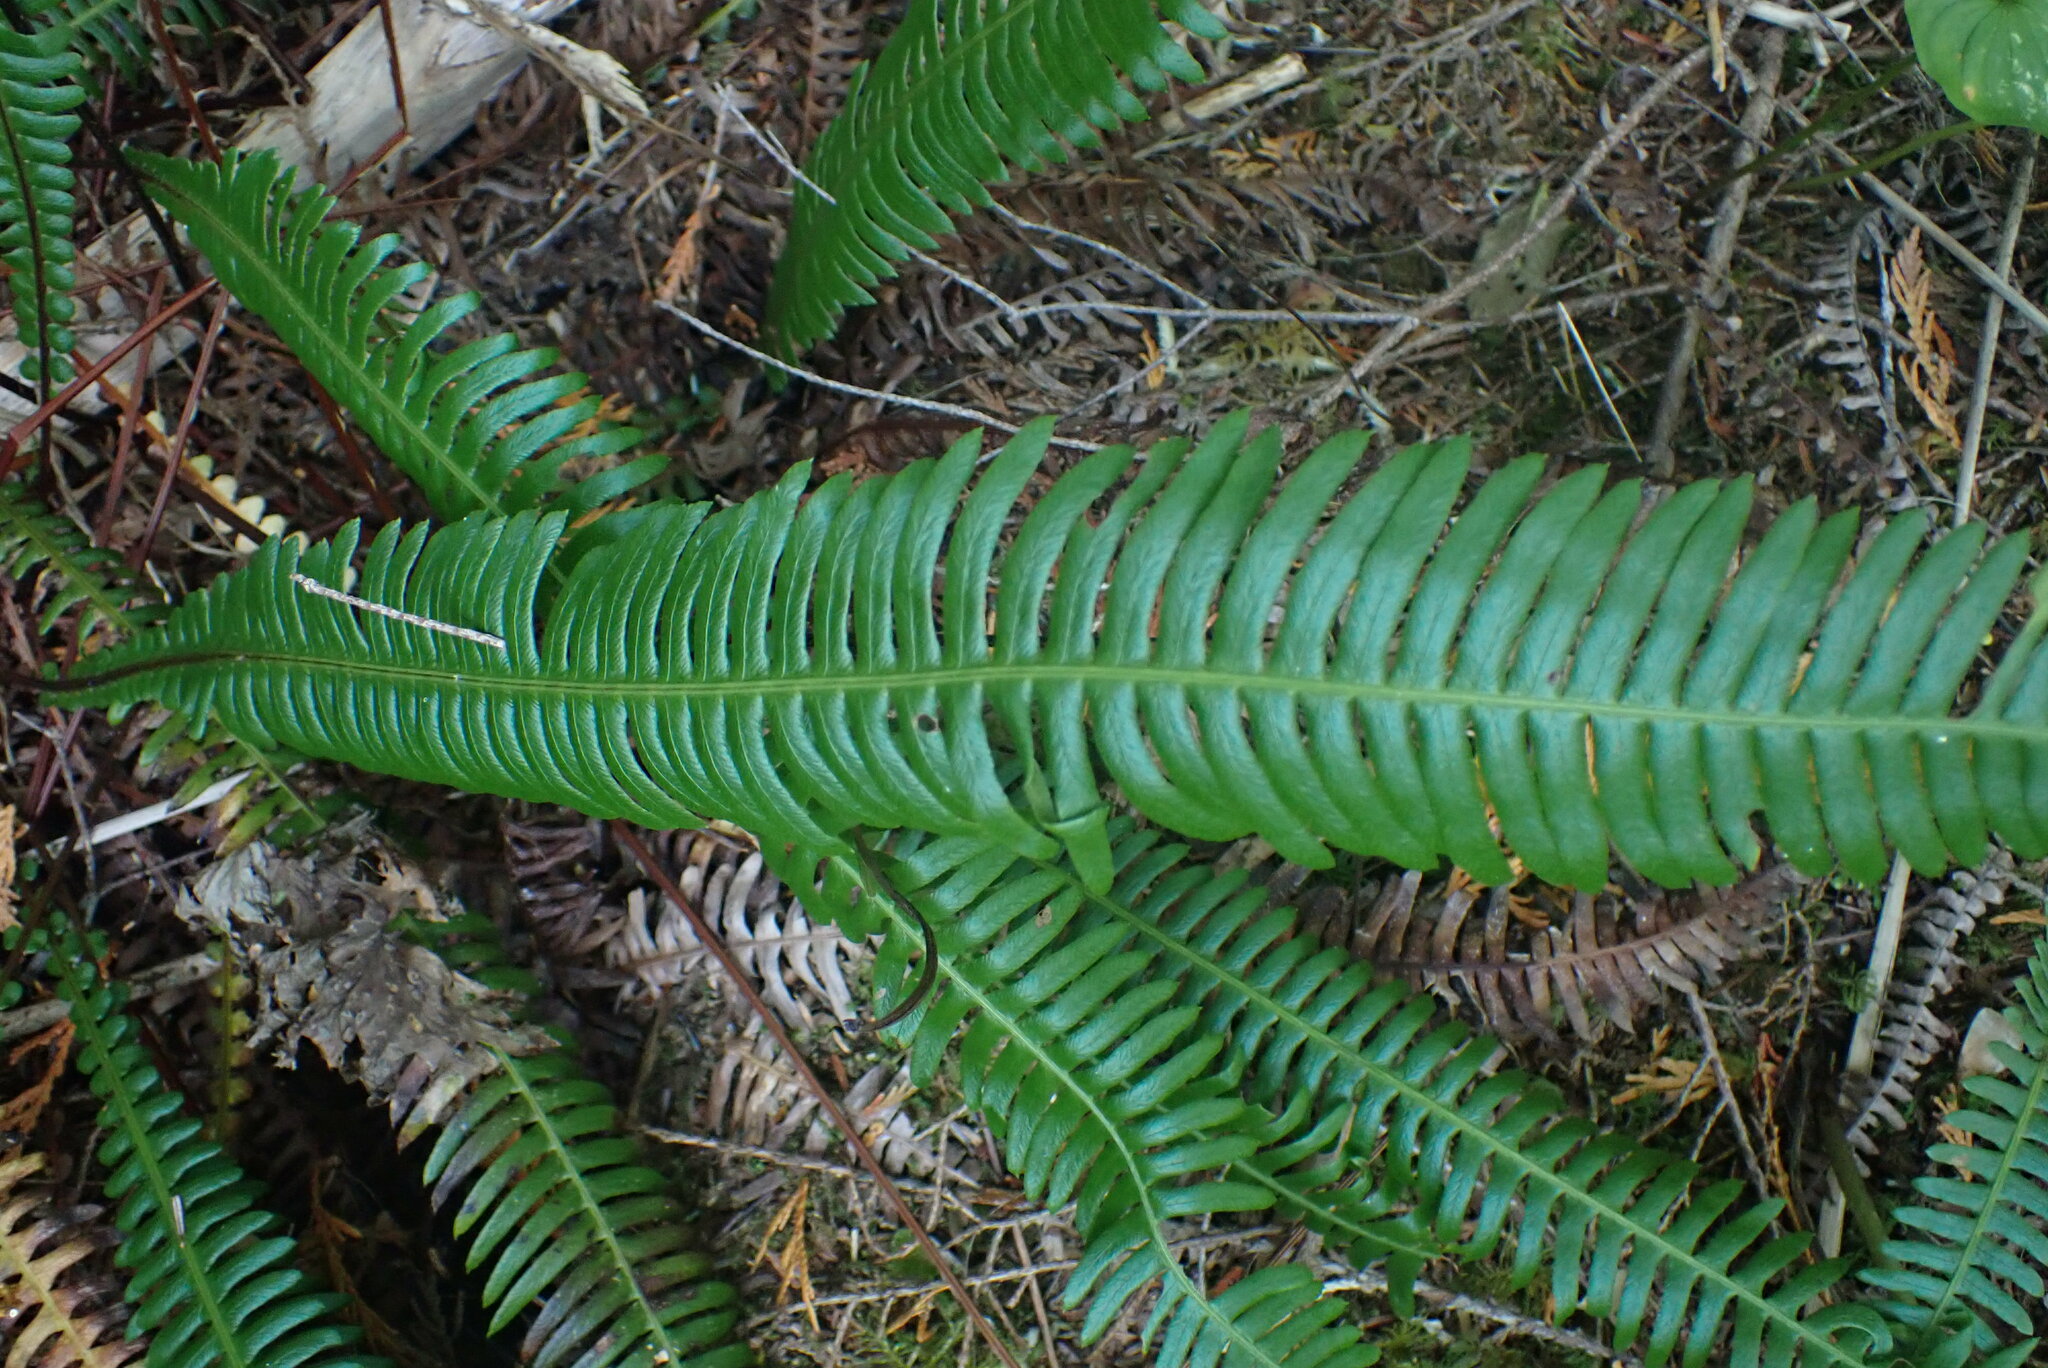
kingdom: Plantae
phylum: Tracheophyta
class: Polypodiopsida
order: Polypodiales
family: Blechnaceae
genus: Struthiopteris
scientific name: Struthiopteris spicant
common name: Deer fern
